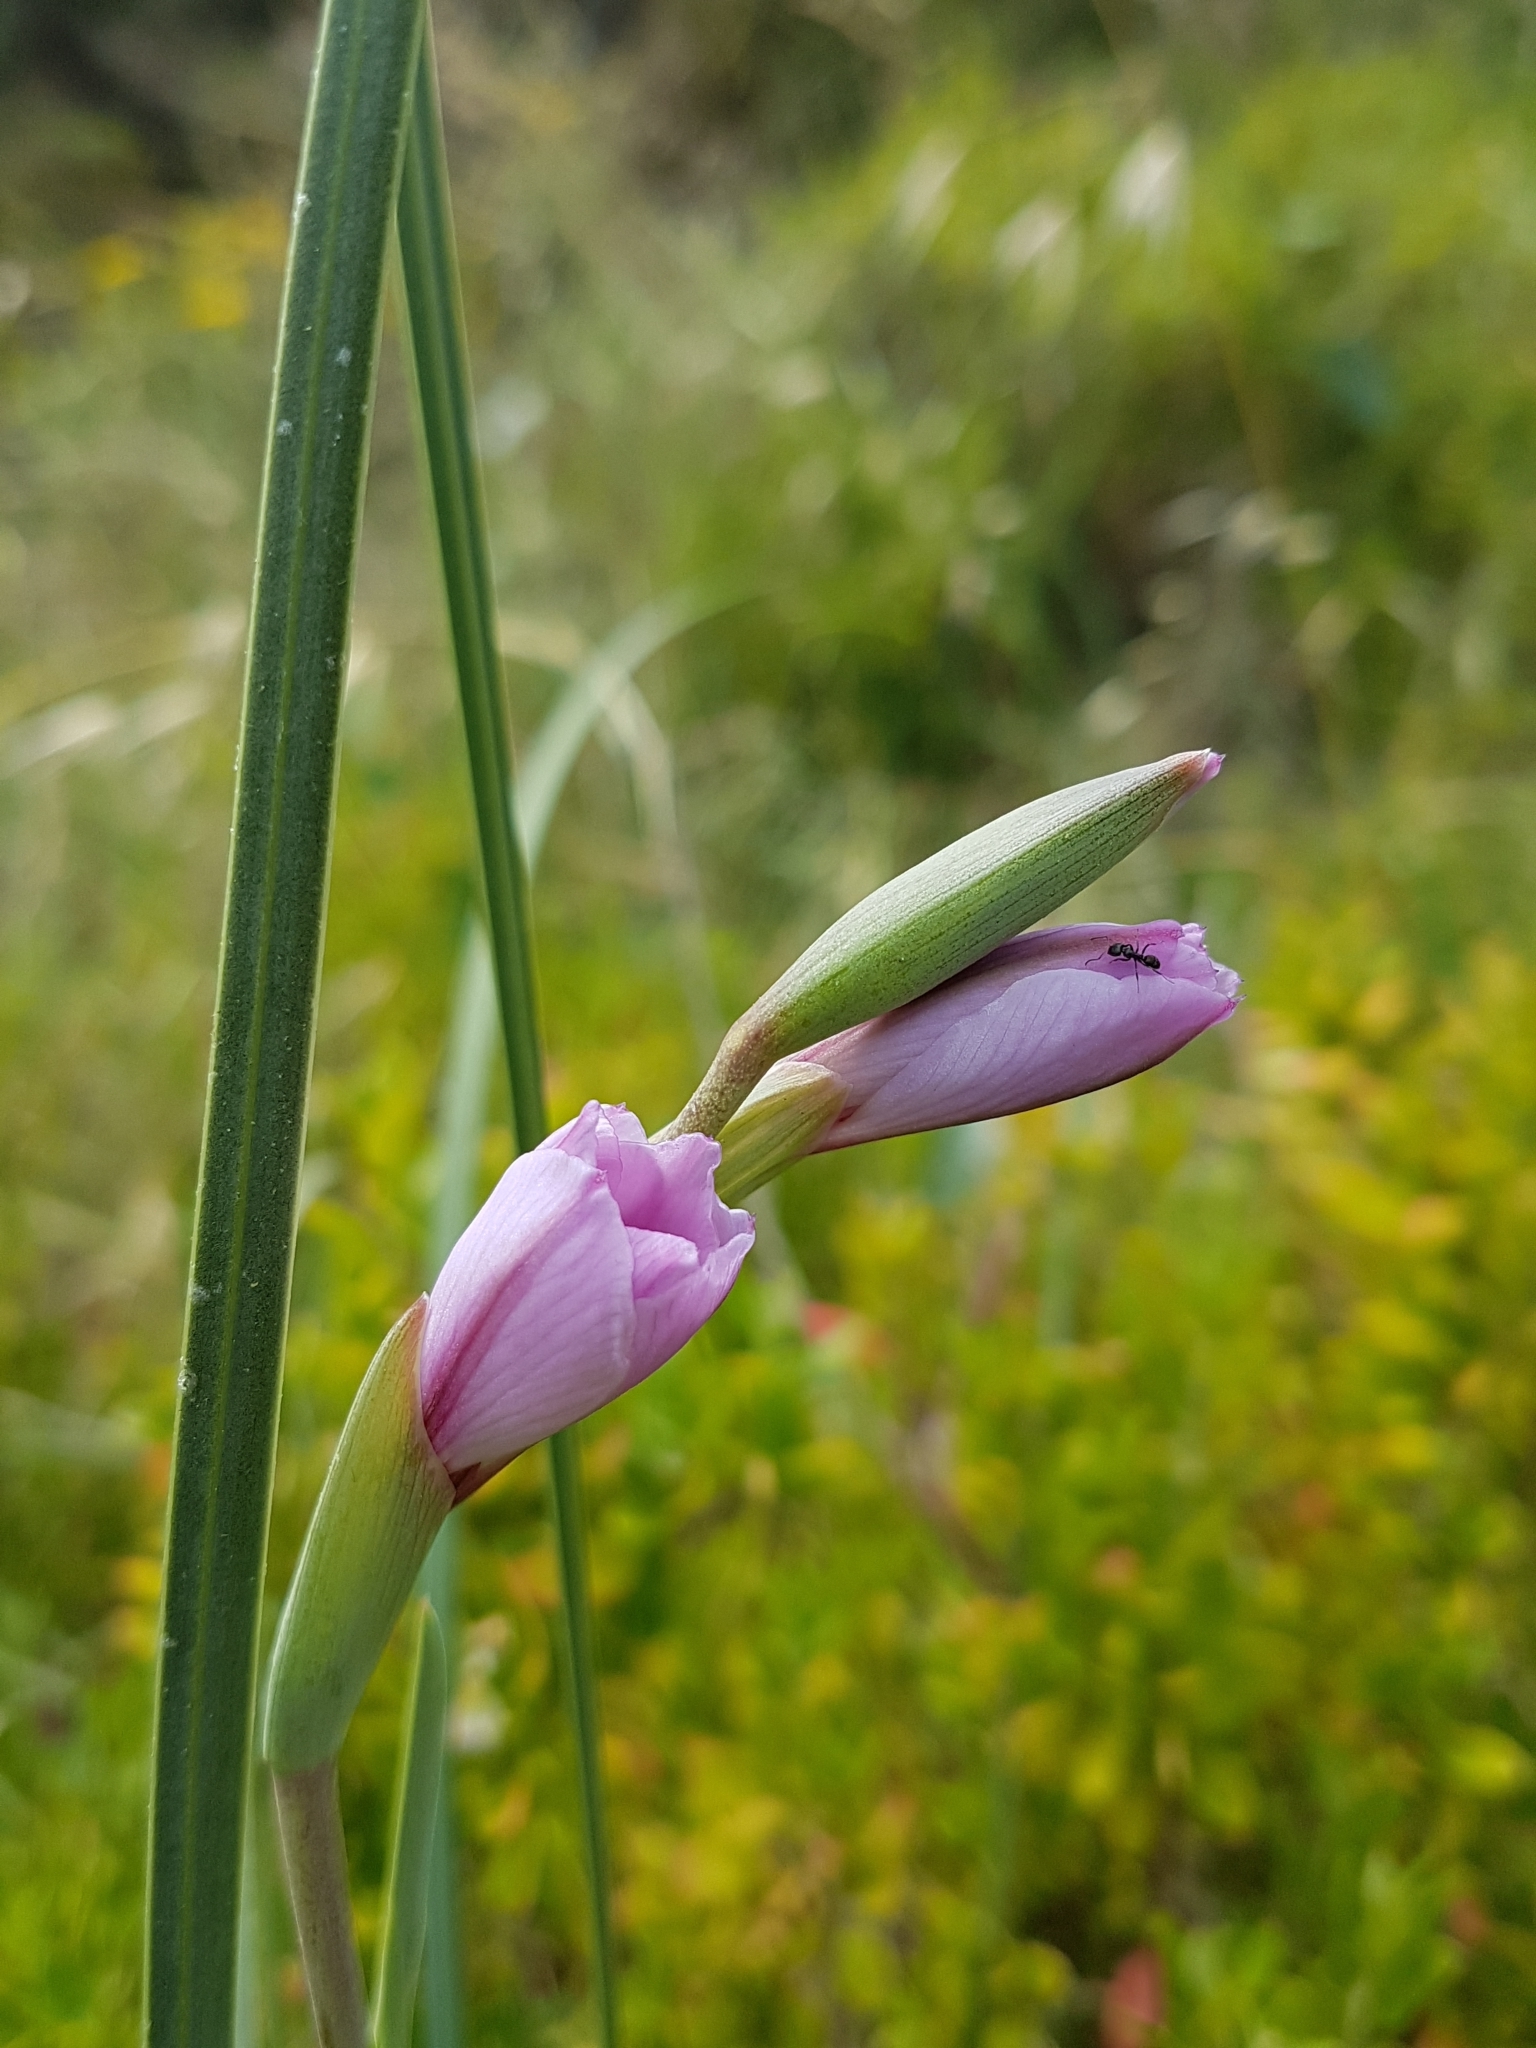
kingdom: Plantae
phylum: Tracheophyta
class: Liliopsida
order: Asparagales
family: Iridaceae
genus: Gladiolus
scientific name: Gladiolus gueinzii
